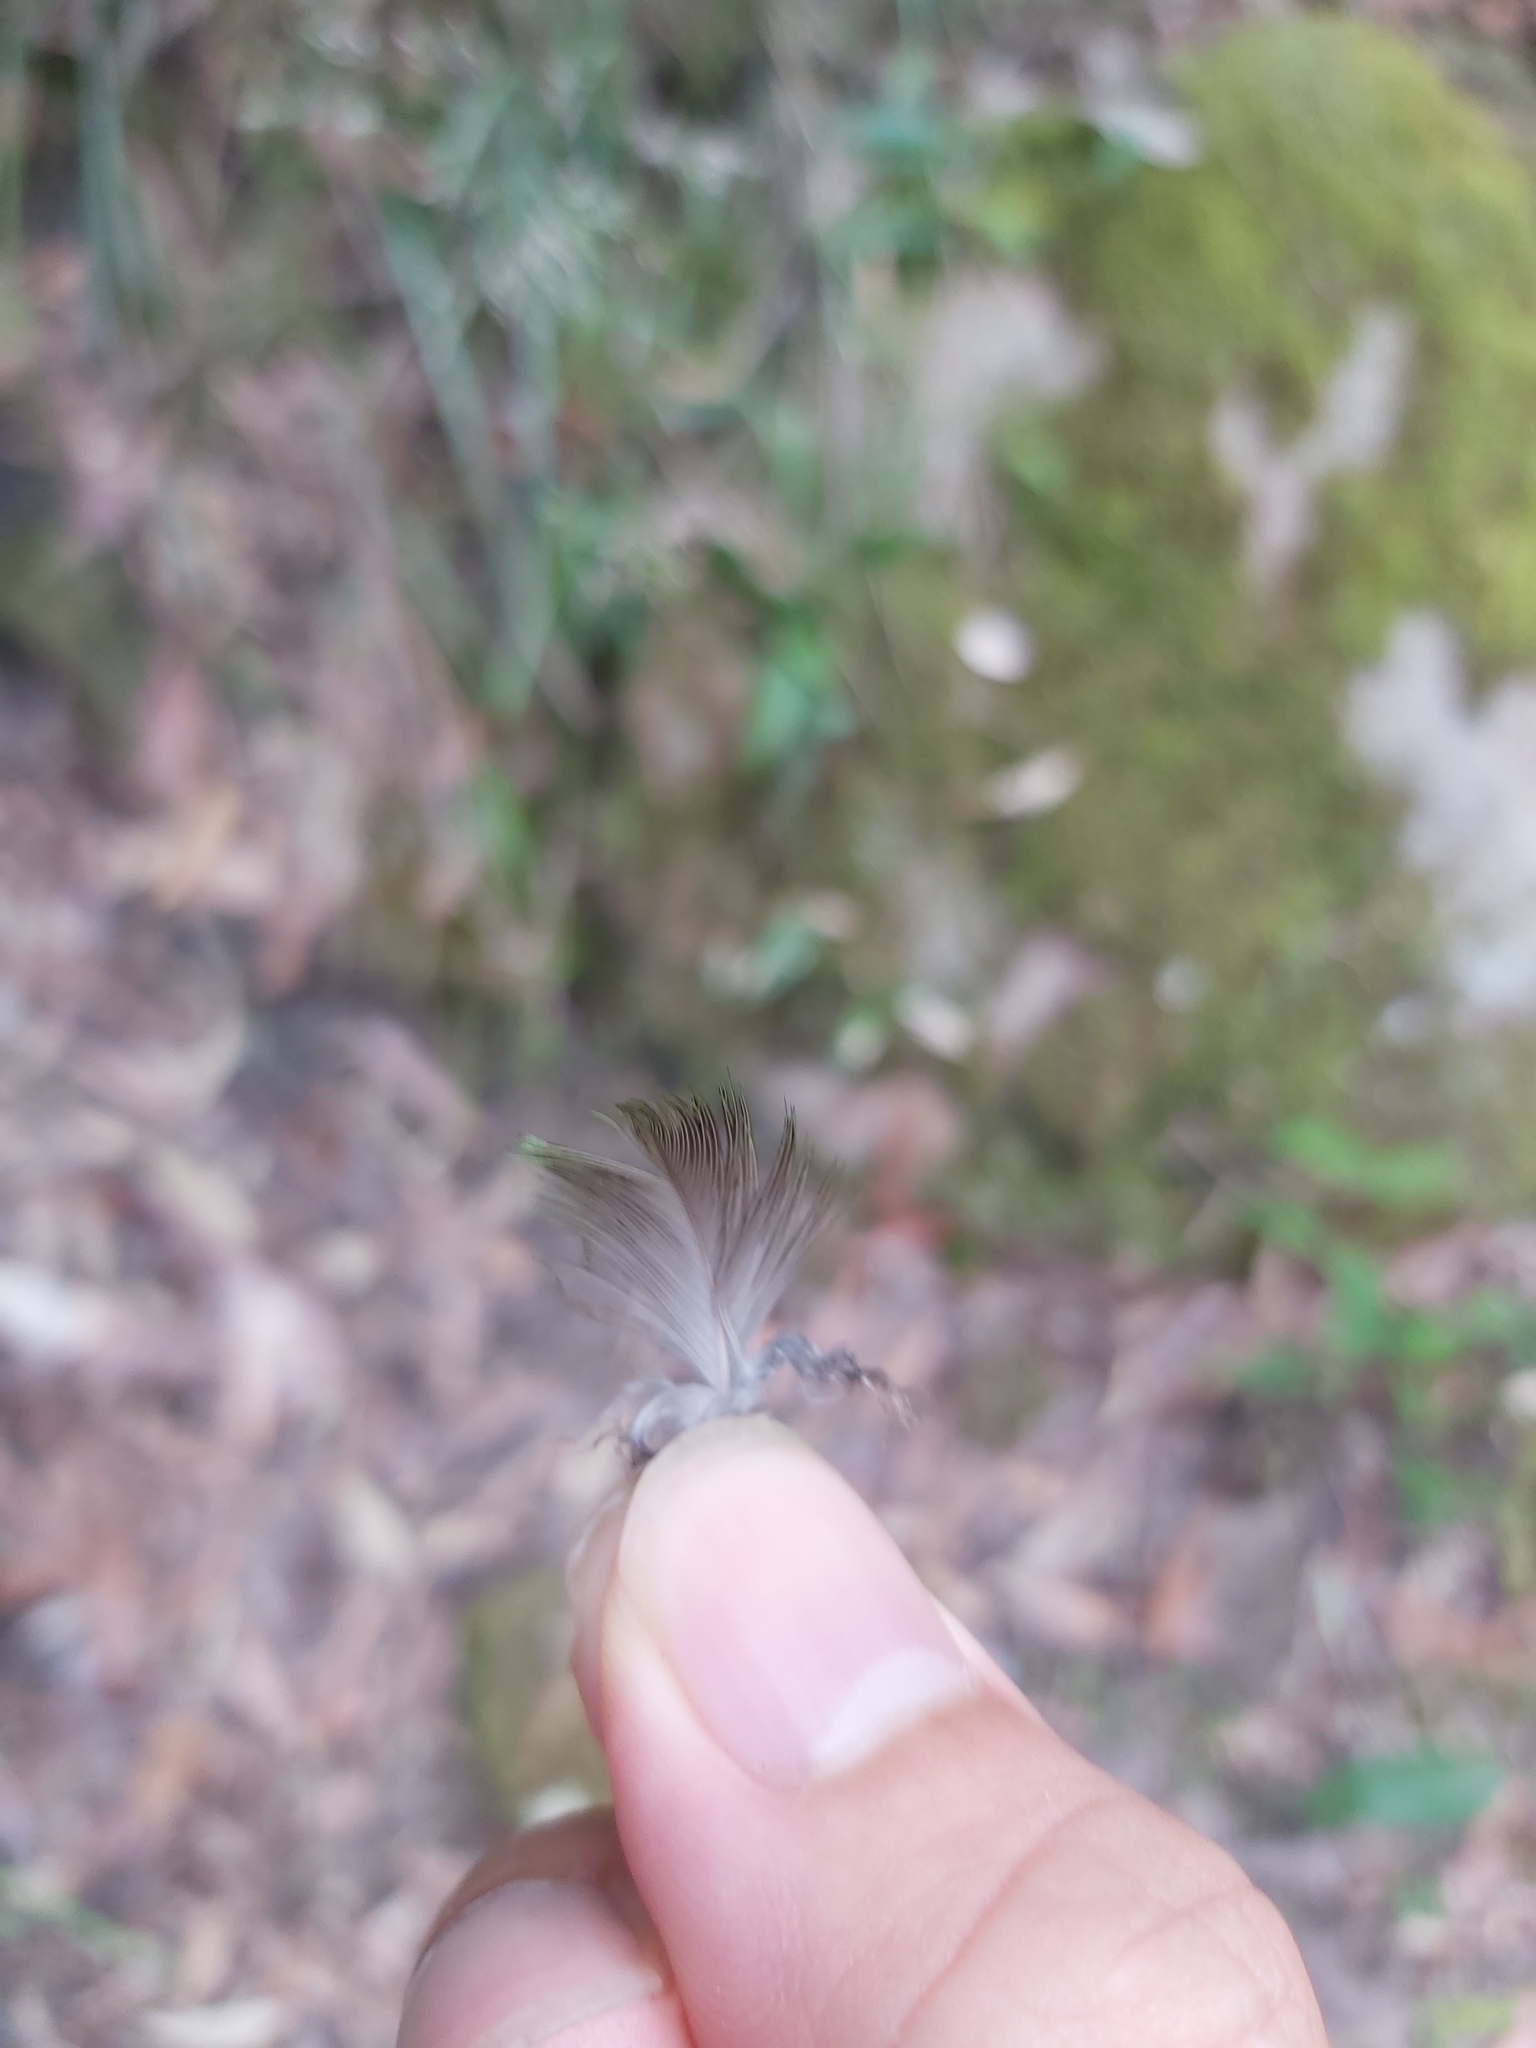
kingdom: Animalia
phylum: Chordata
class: Aves
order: Psittaciformes
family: Psittacidae
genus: Alisterus
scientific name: Alisterus scapularis
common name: Australian king parrot
